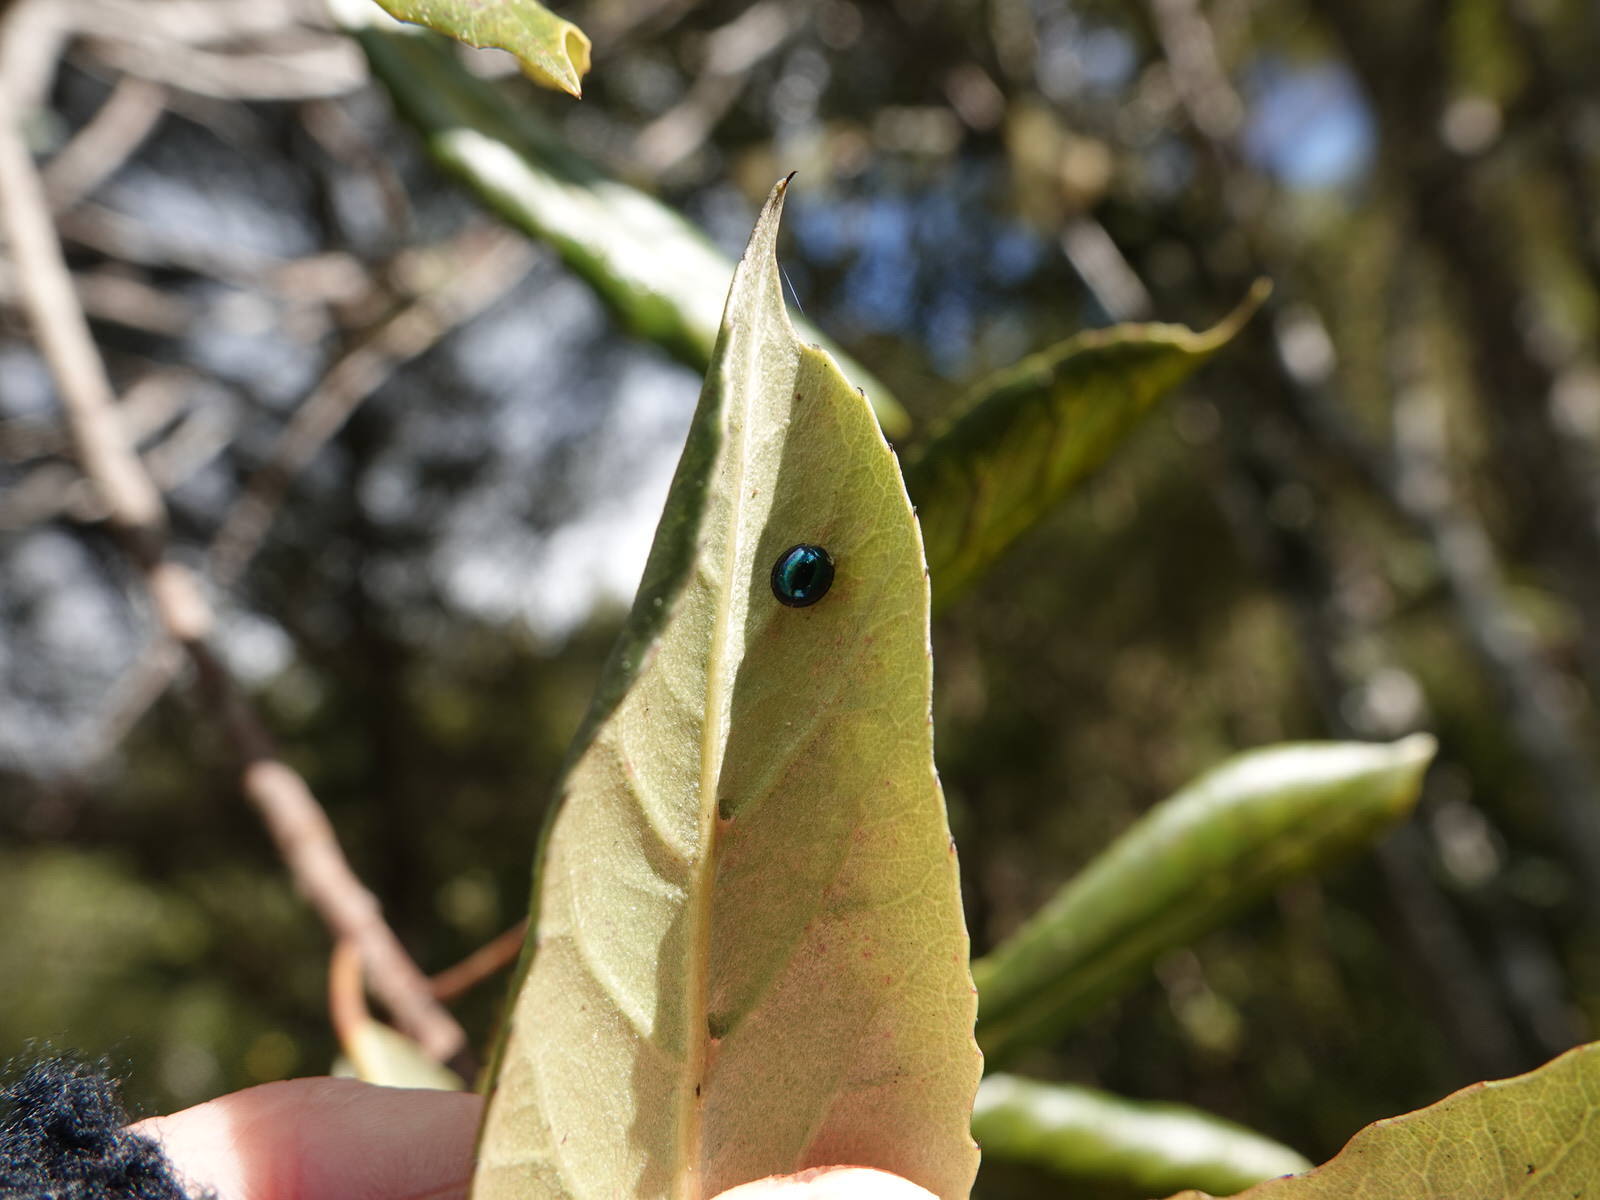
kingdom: Plantae
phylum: Tracheophyta
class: Magnoliopsida
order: Oxalidales
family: Elaeocarpaceae
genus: Elaeocarpus
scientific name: Elaeocarpus dentatus
